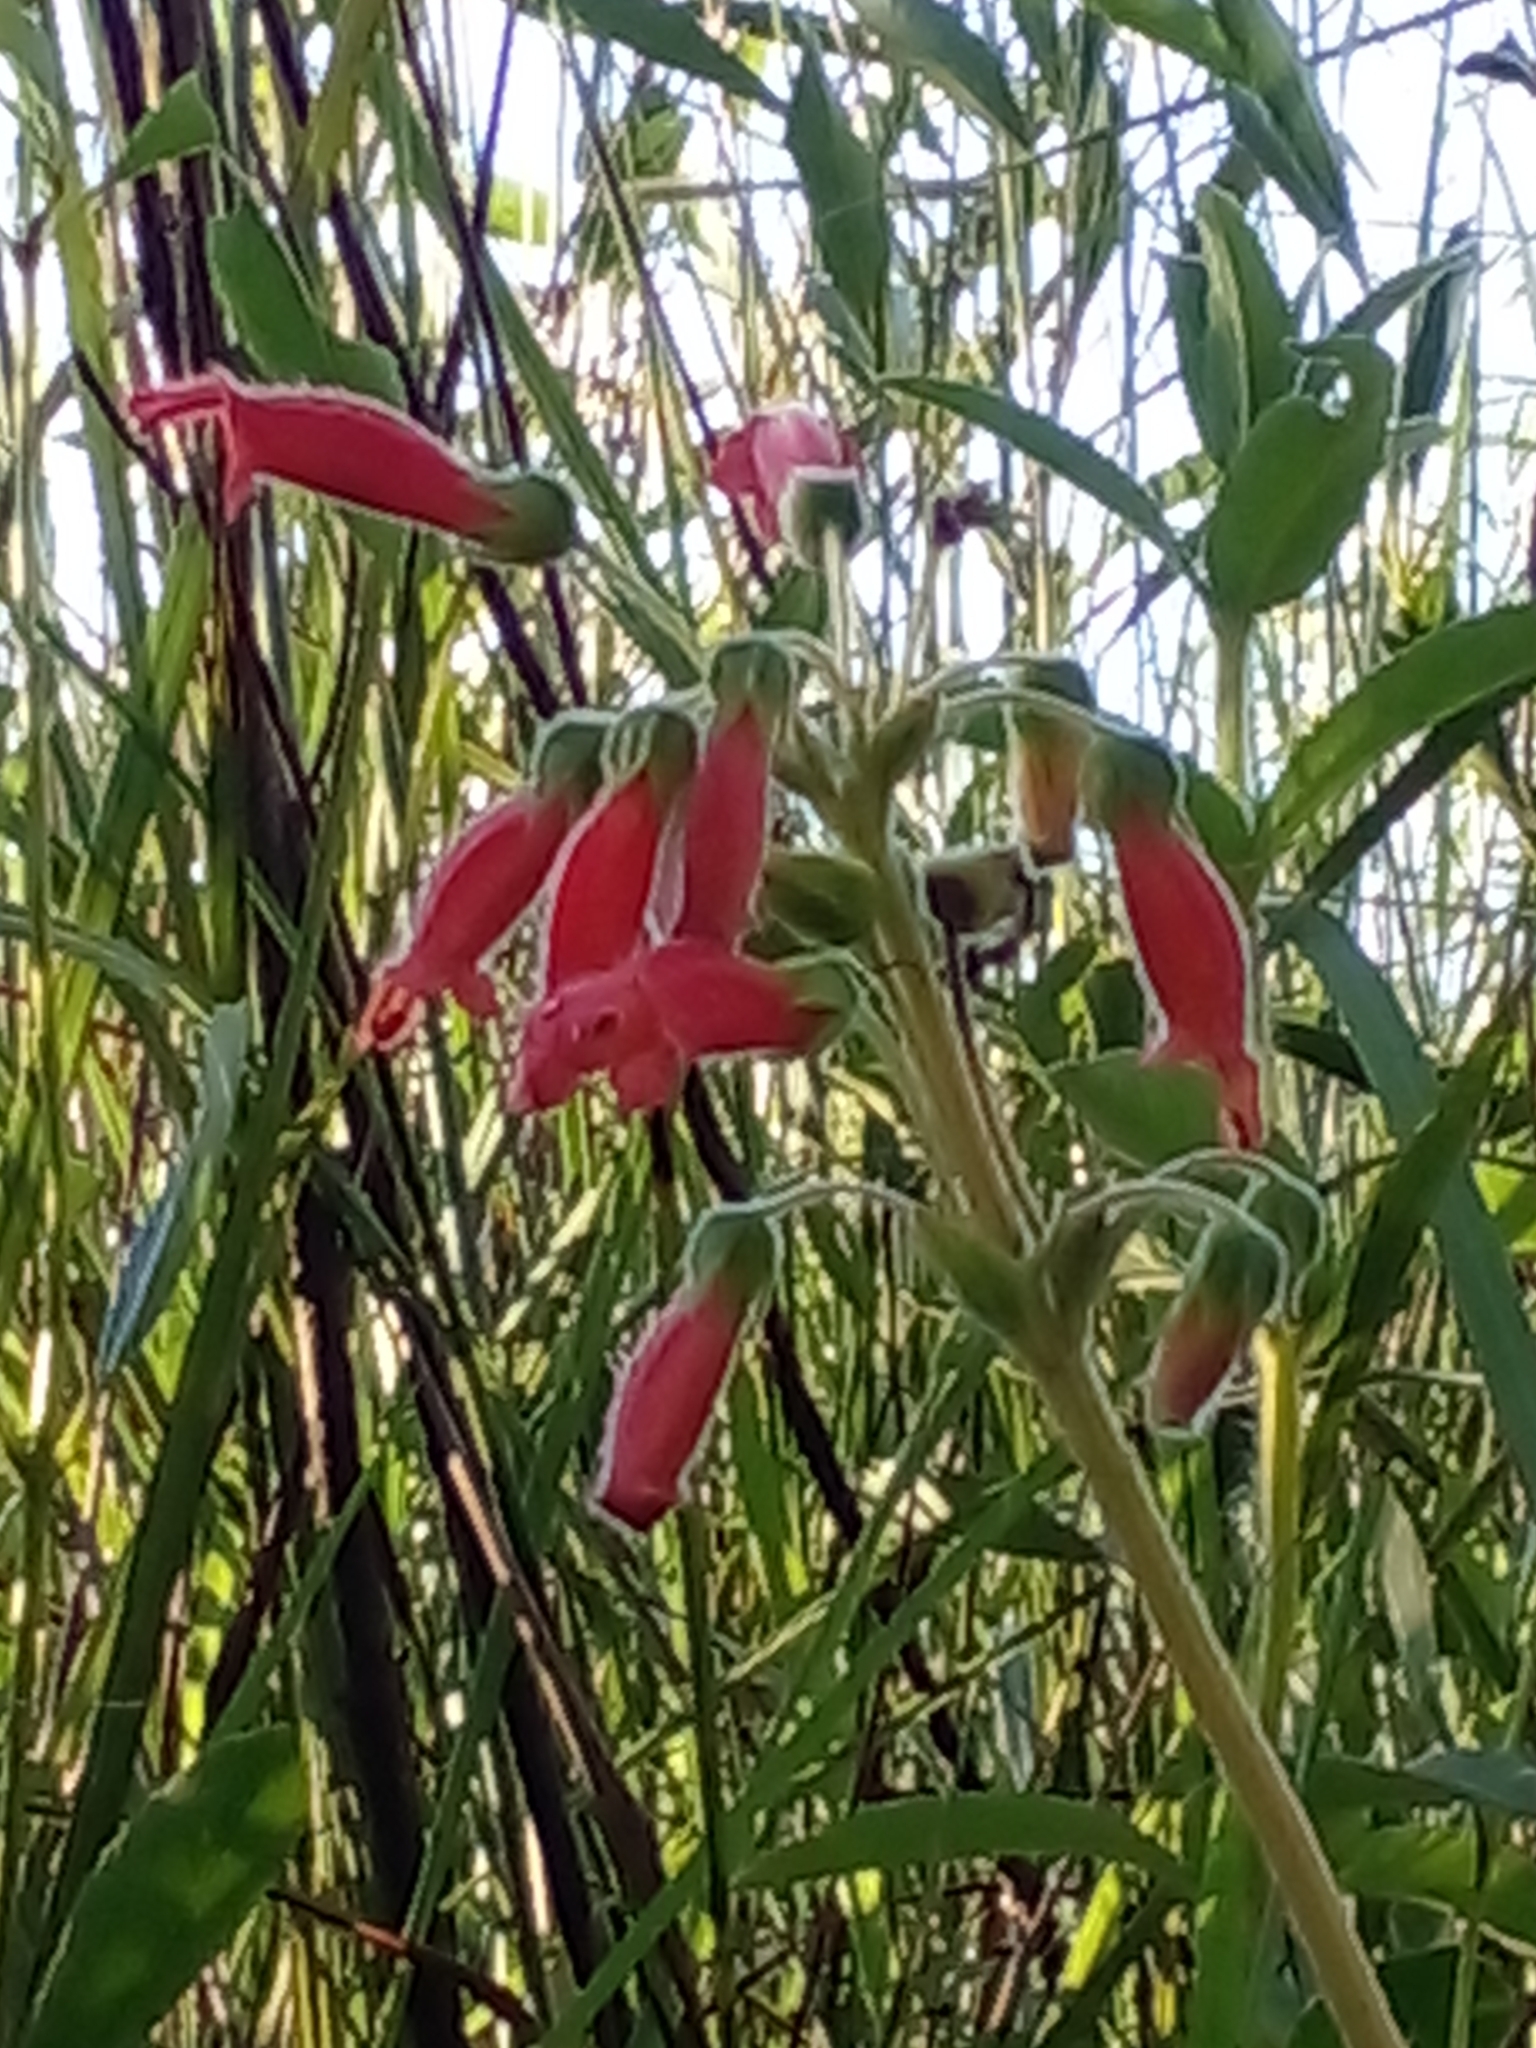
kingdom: Plantae
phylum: Tracheophyta
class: Magnoliopsida
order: Lamiales
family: Gesneriaceae
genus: Sinningia
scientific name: Sinningia warmingii
